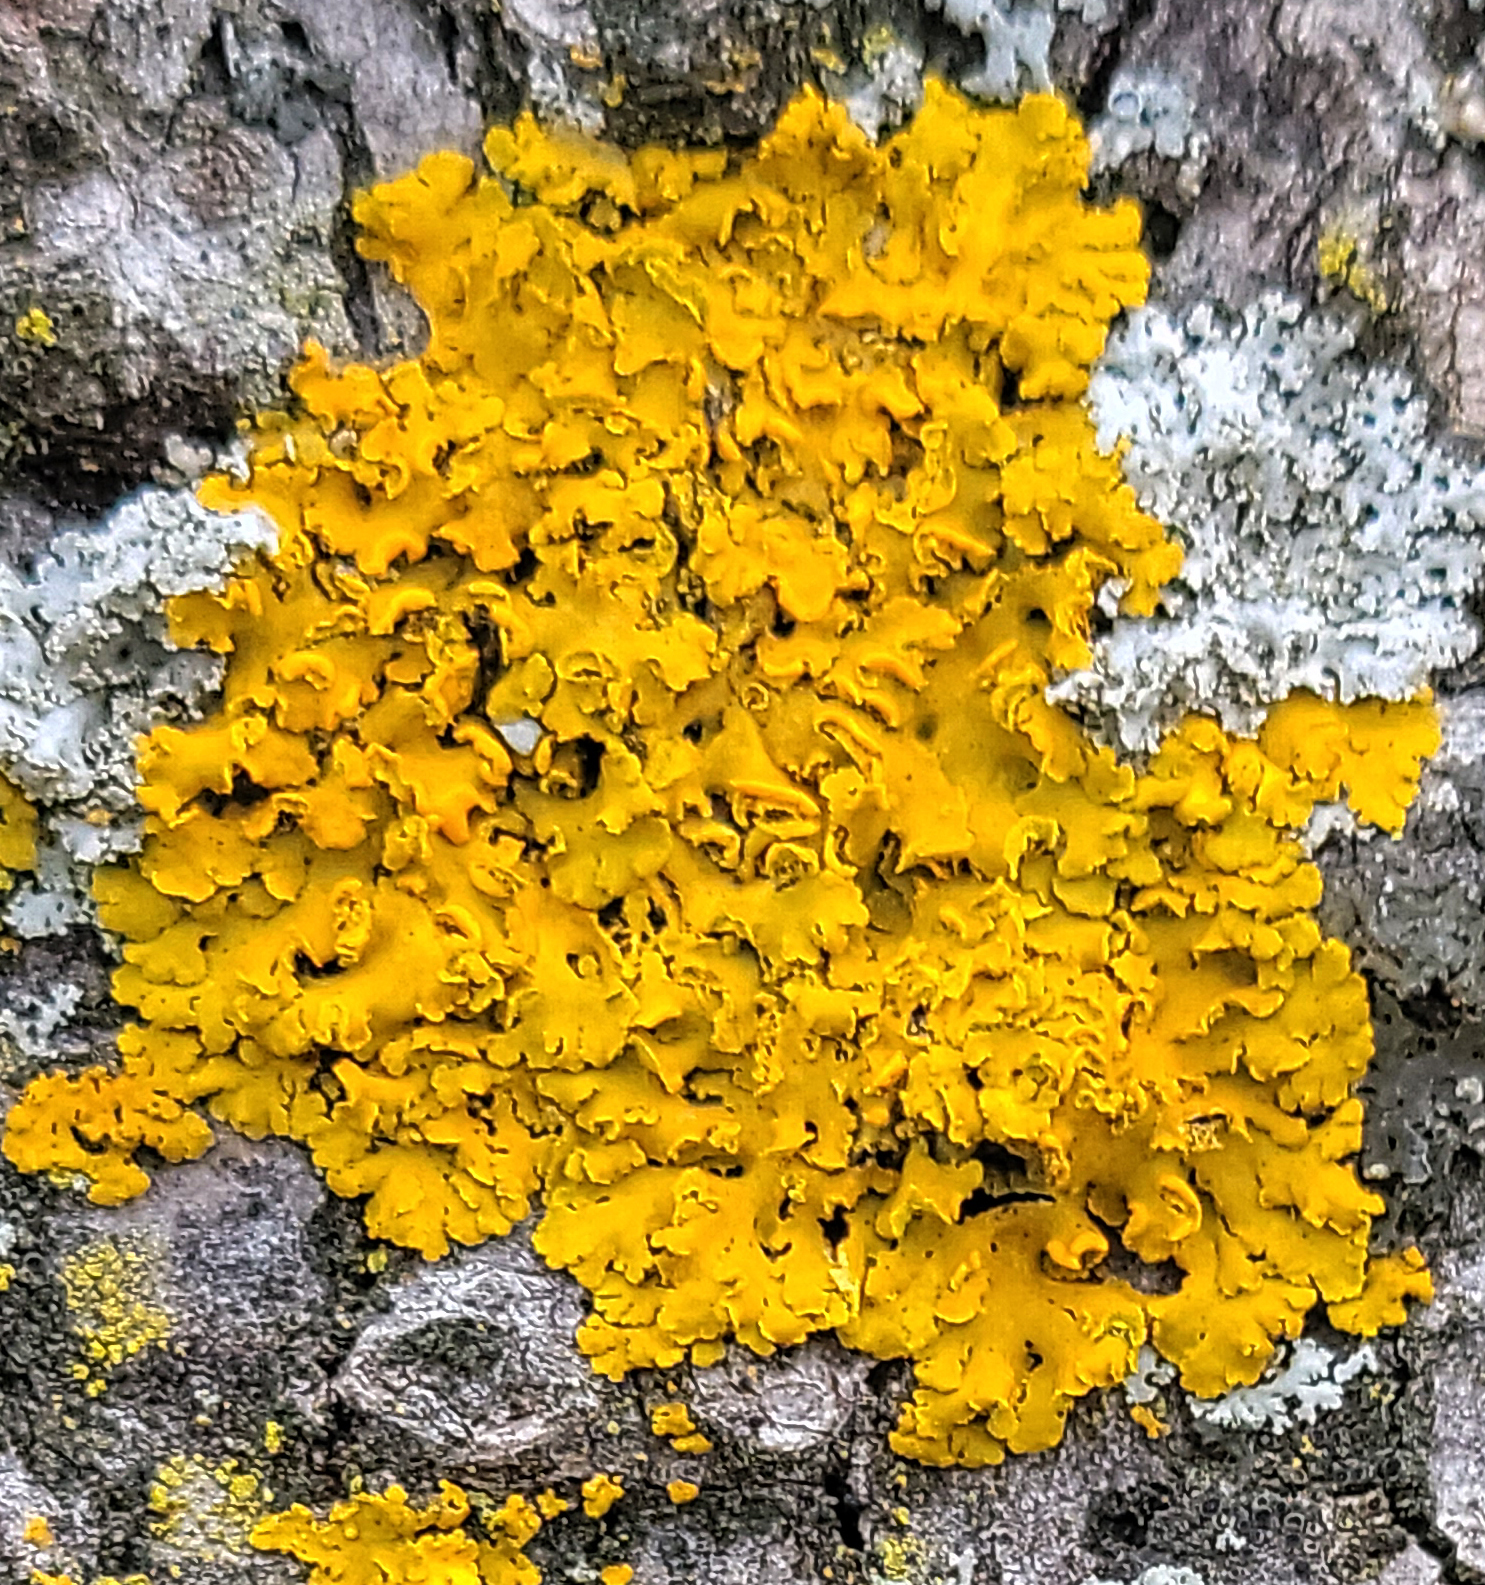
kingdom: Fungi
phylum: Ascomycota
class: Lecanoromycetes
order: Teloschistales
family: Teloschistaceae
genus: Oxneria
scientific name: Oxneria fallax
